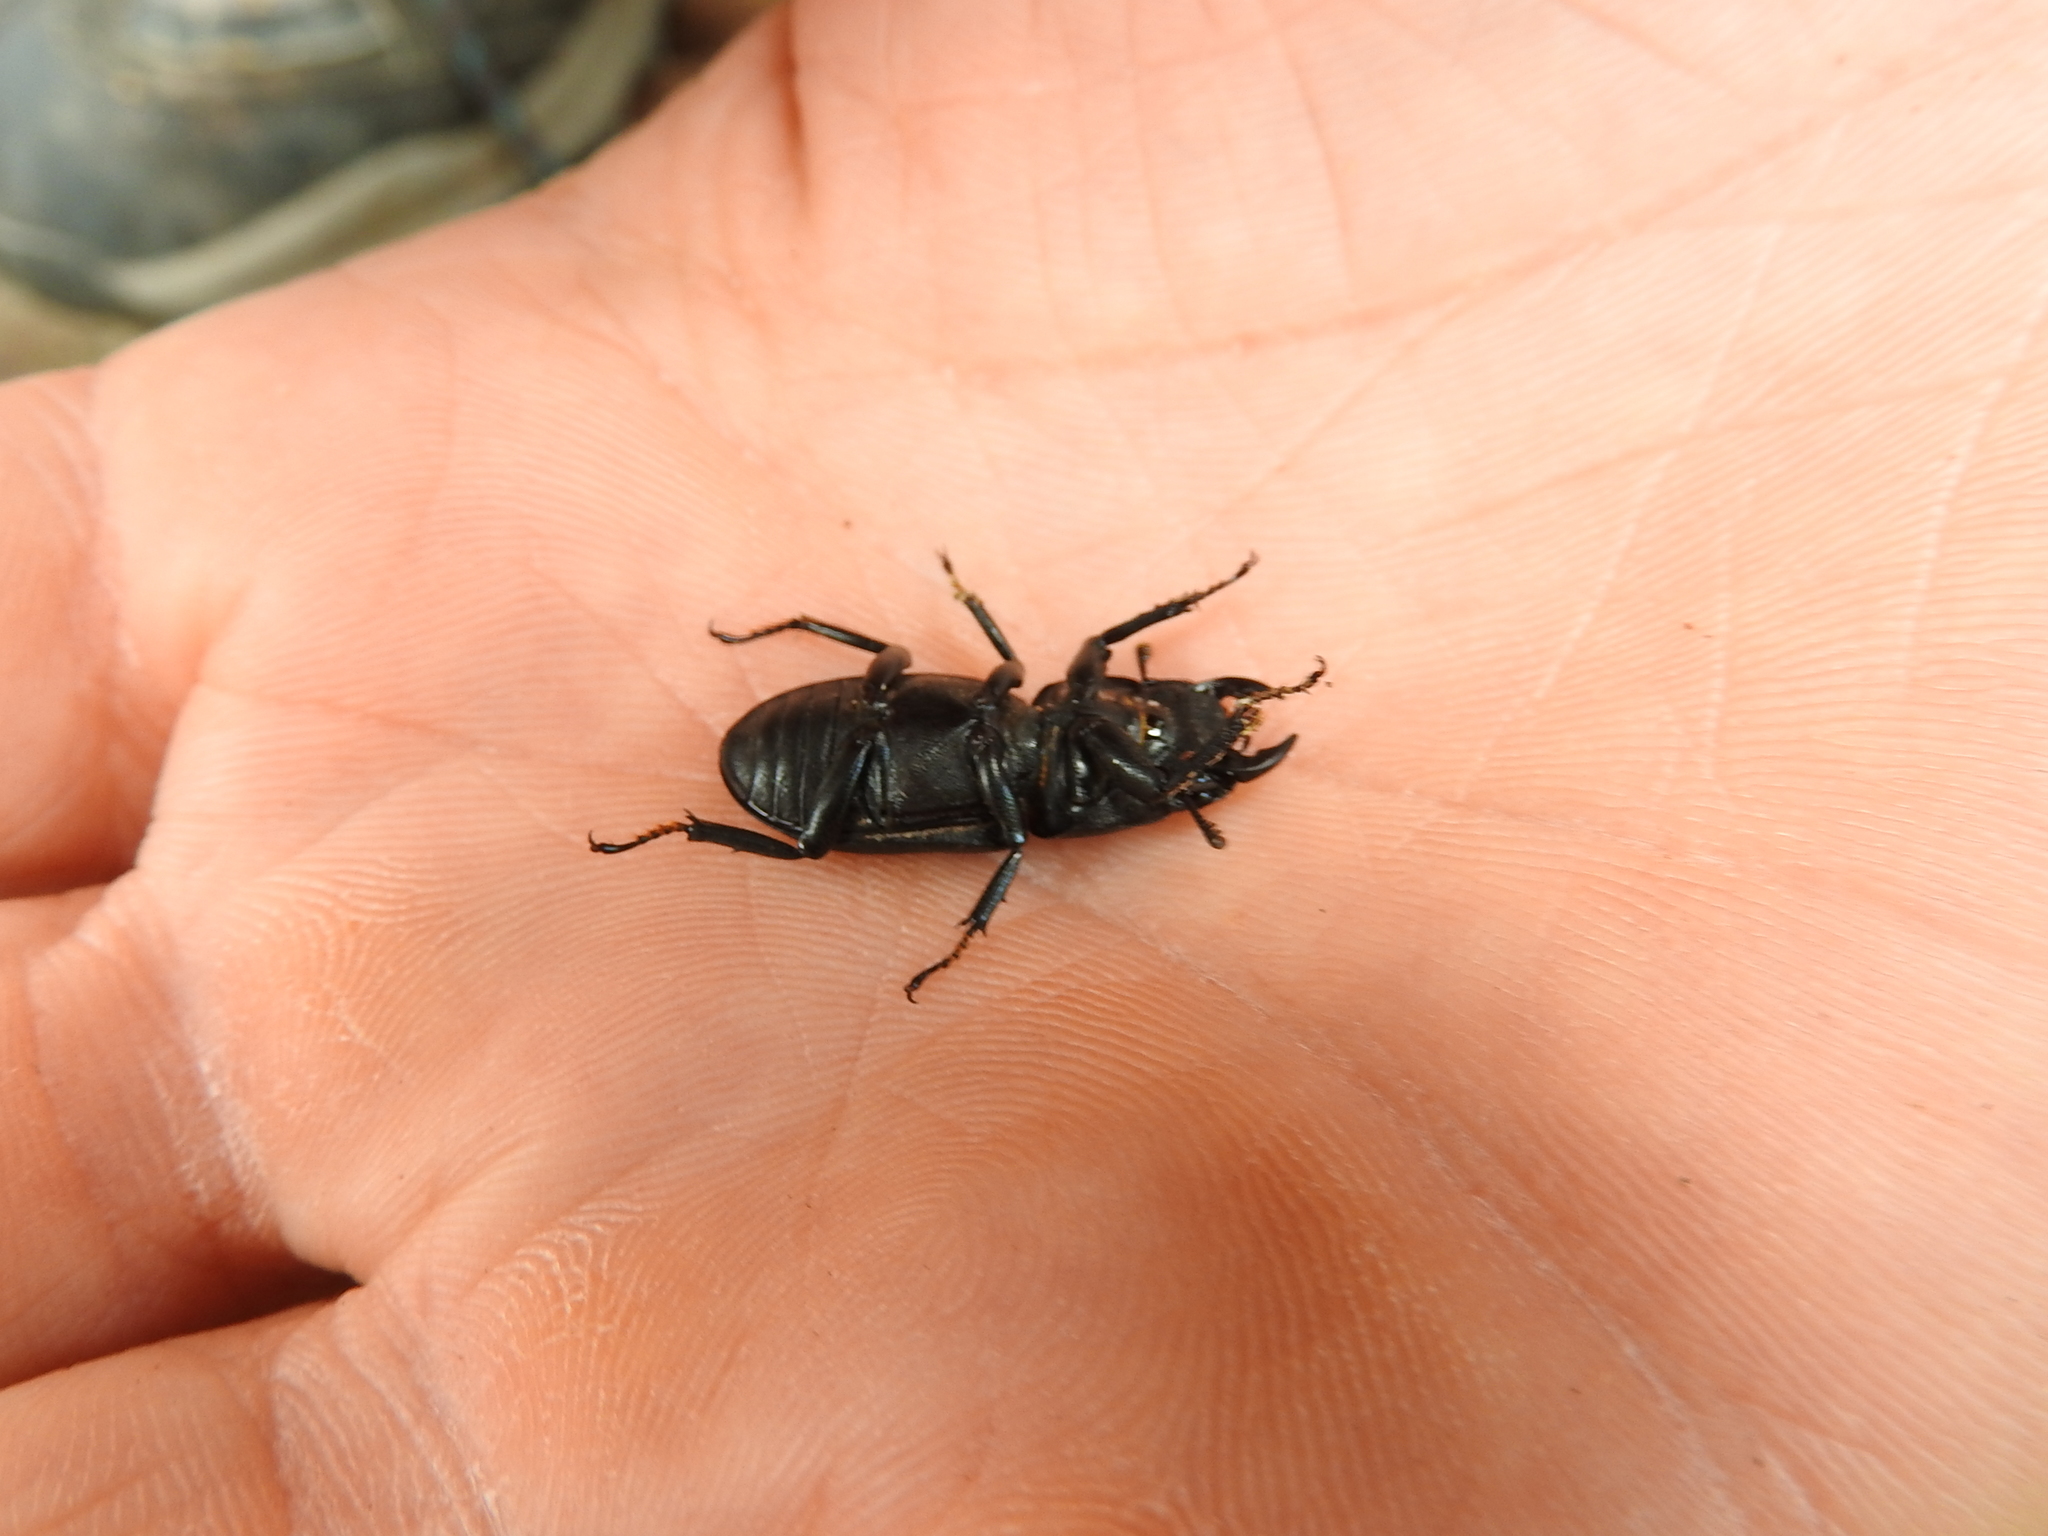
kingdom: Animalia
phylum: Arthropoda
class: Insecta
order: Coleoptera
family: Lucanidae
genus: Dorcus
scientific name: Dorcus parallelipipedus
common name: Lesser stag beetle
